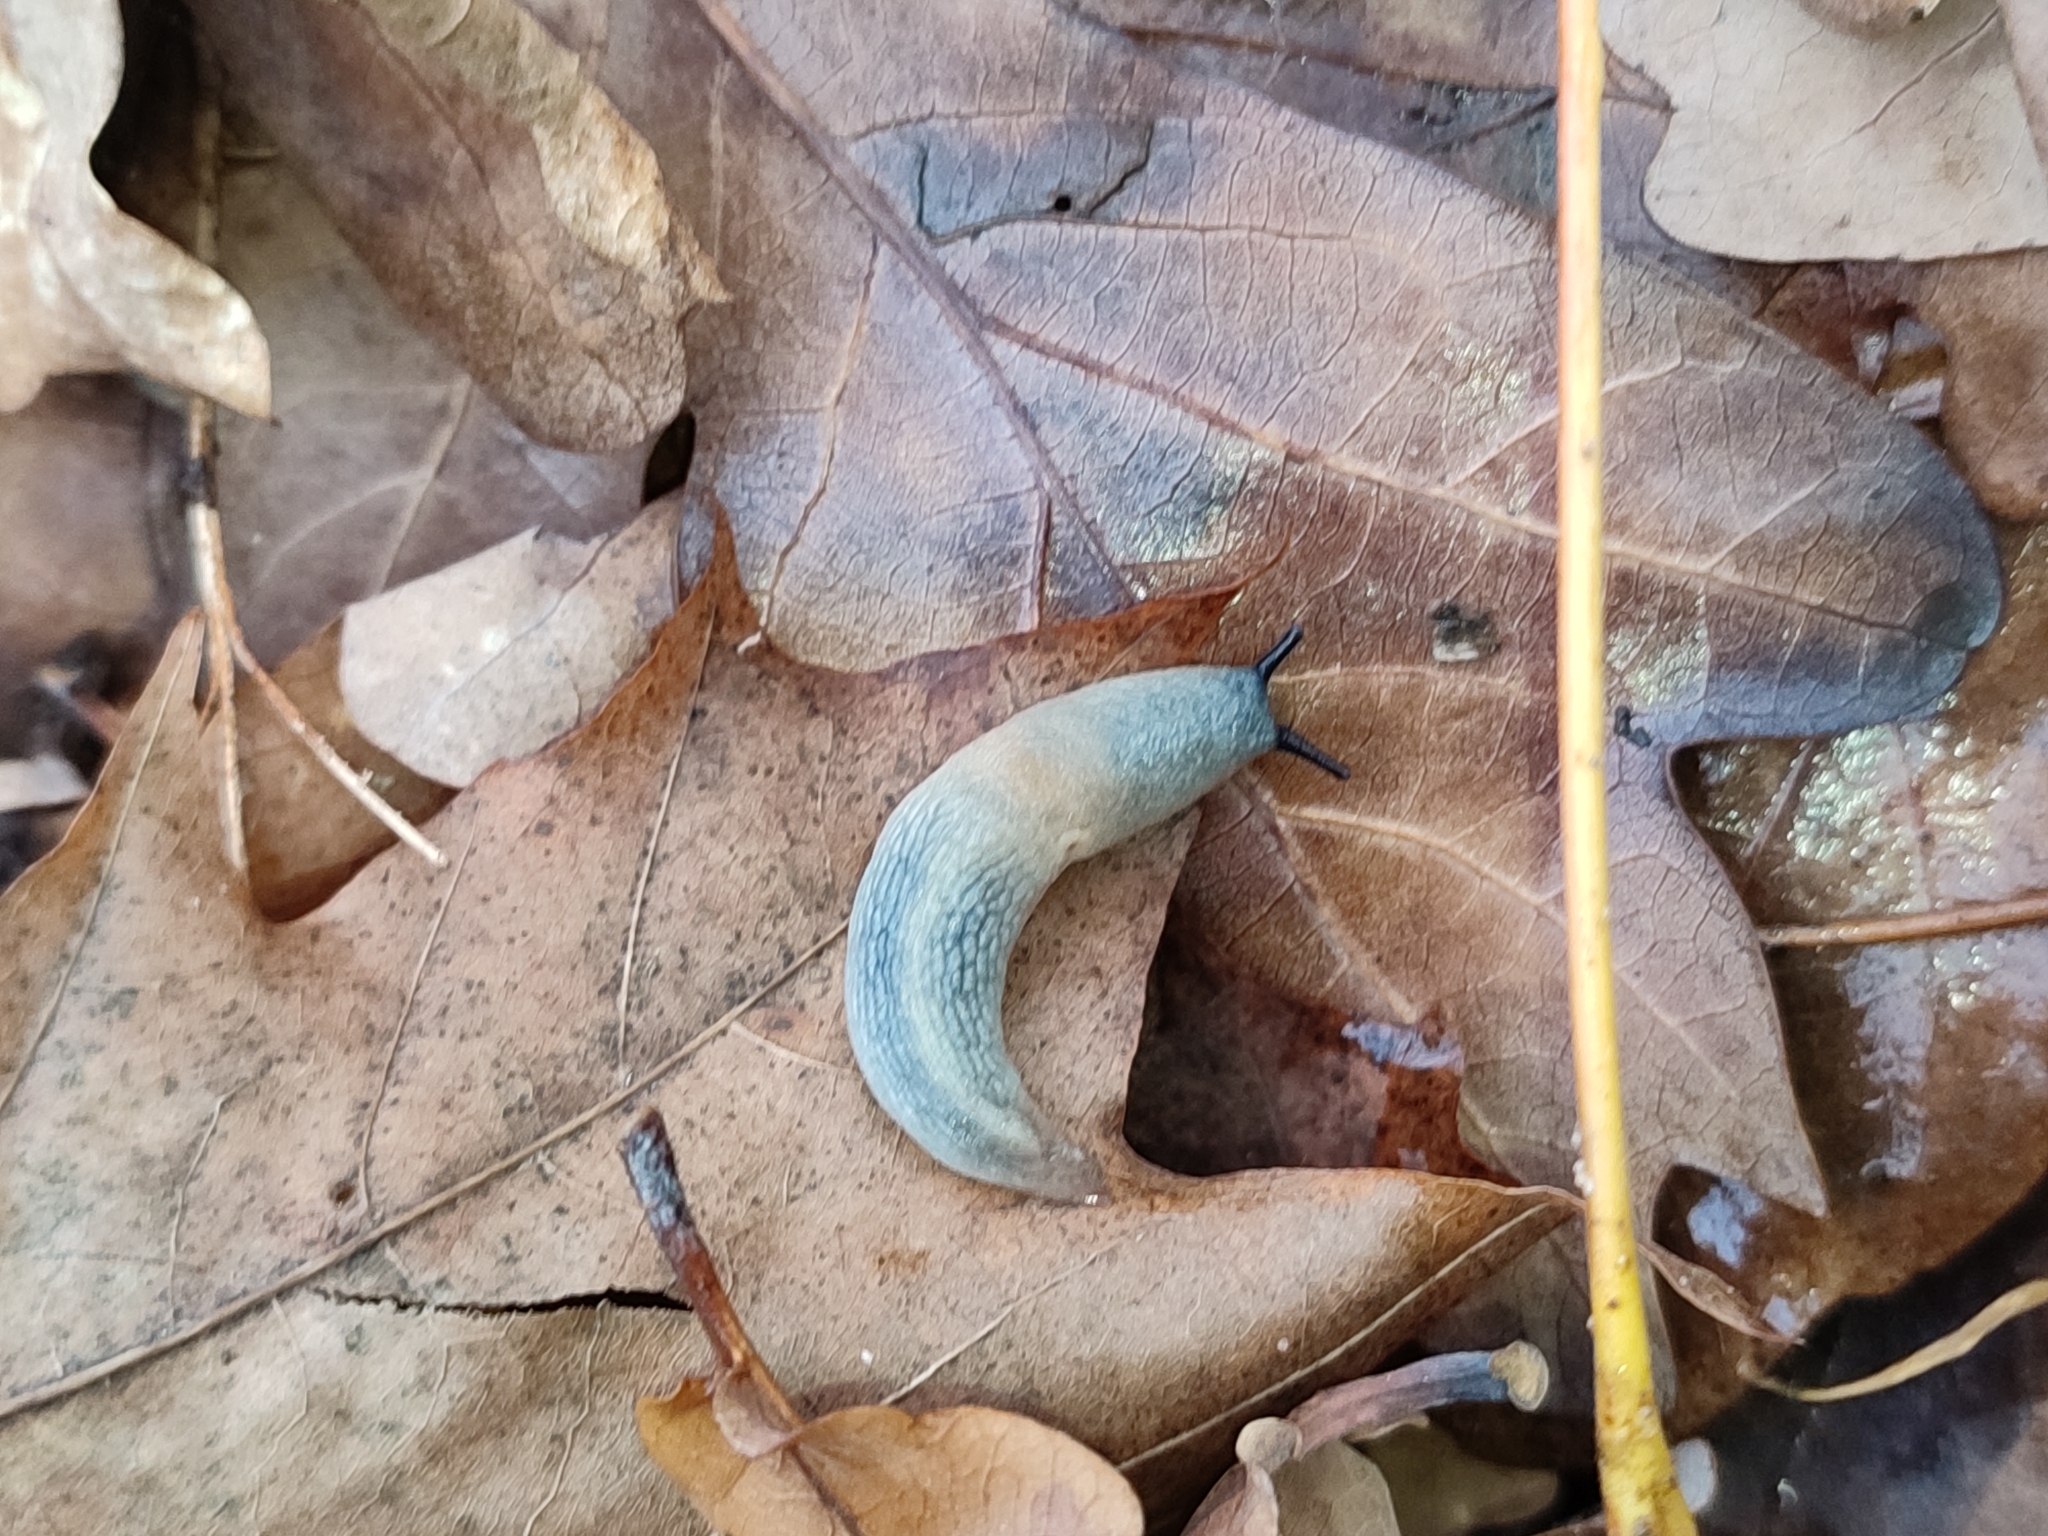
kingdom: Animalia
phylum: Mollusca
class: Gastropoda
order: Stylommatophora
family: Agriolimacidae
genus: Krynickillus
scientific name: Krynickillus melanocephalus
